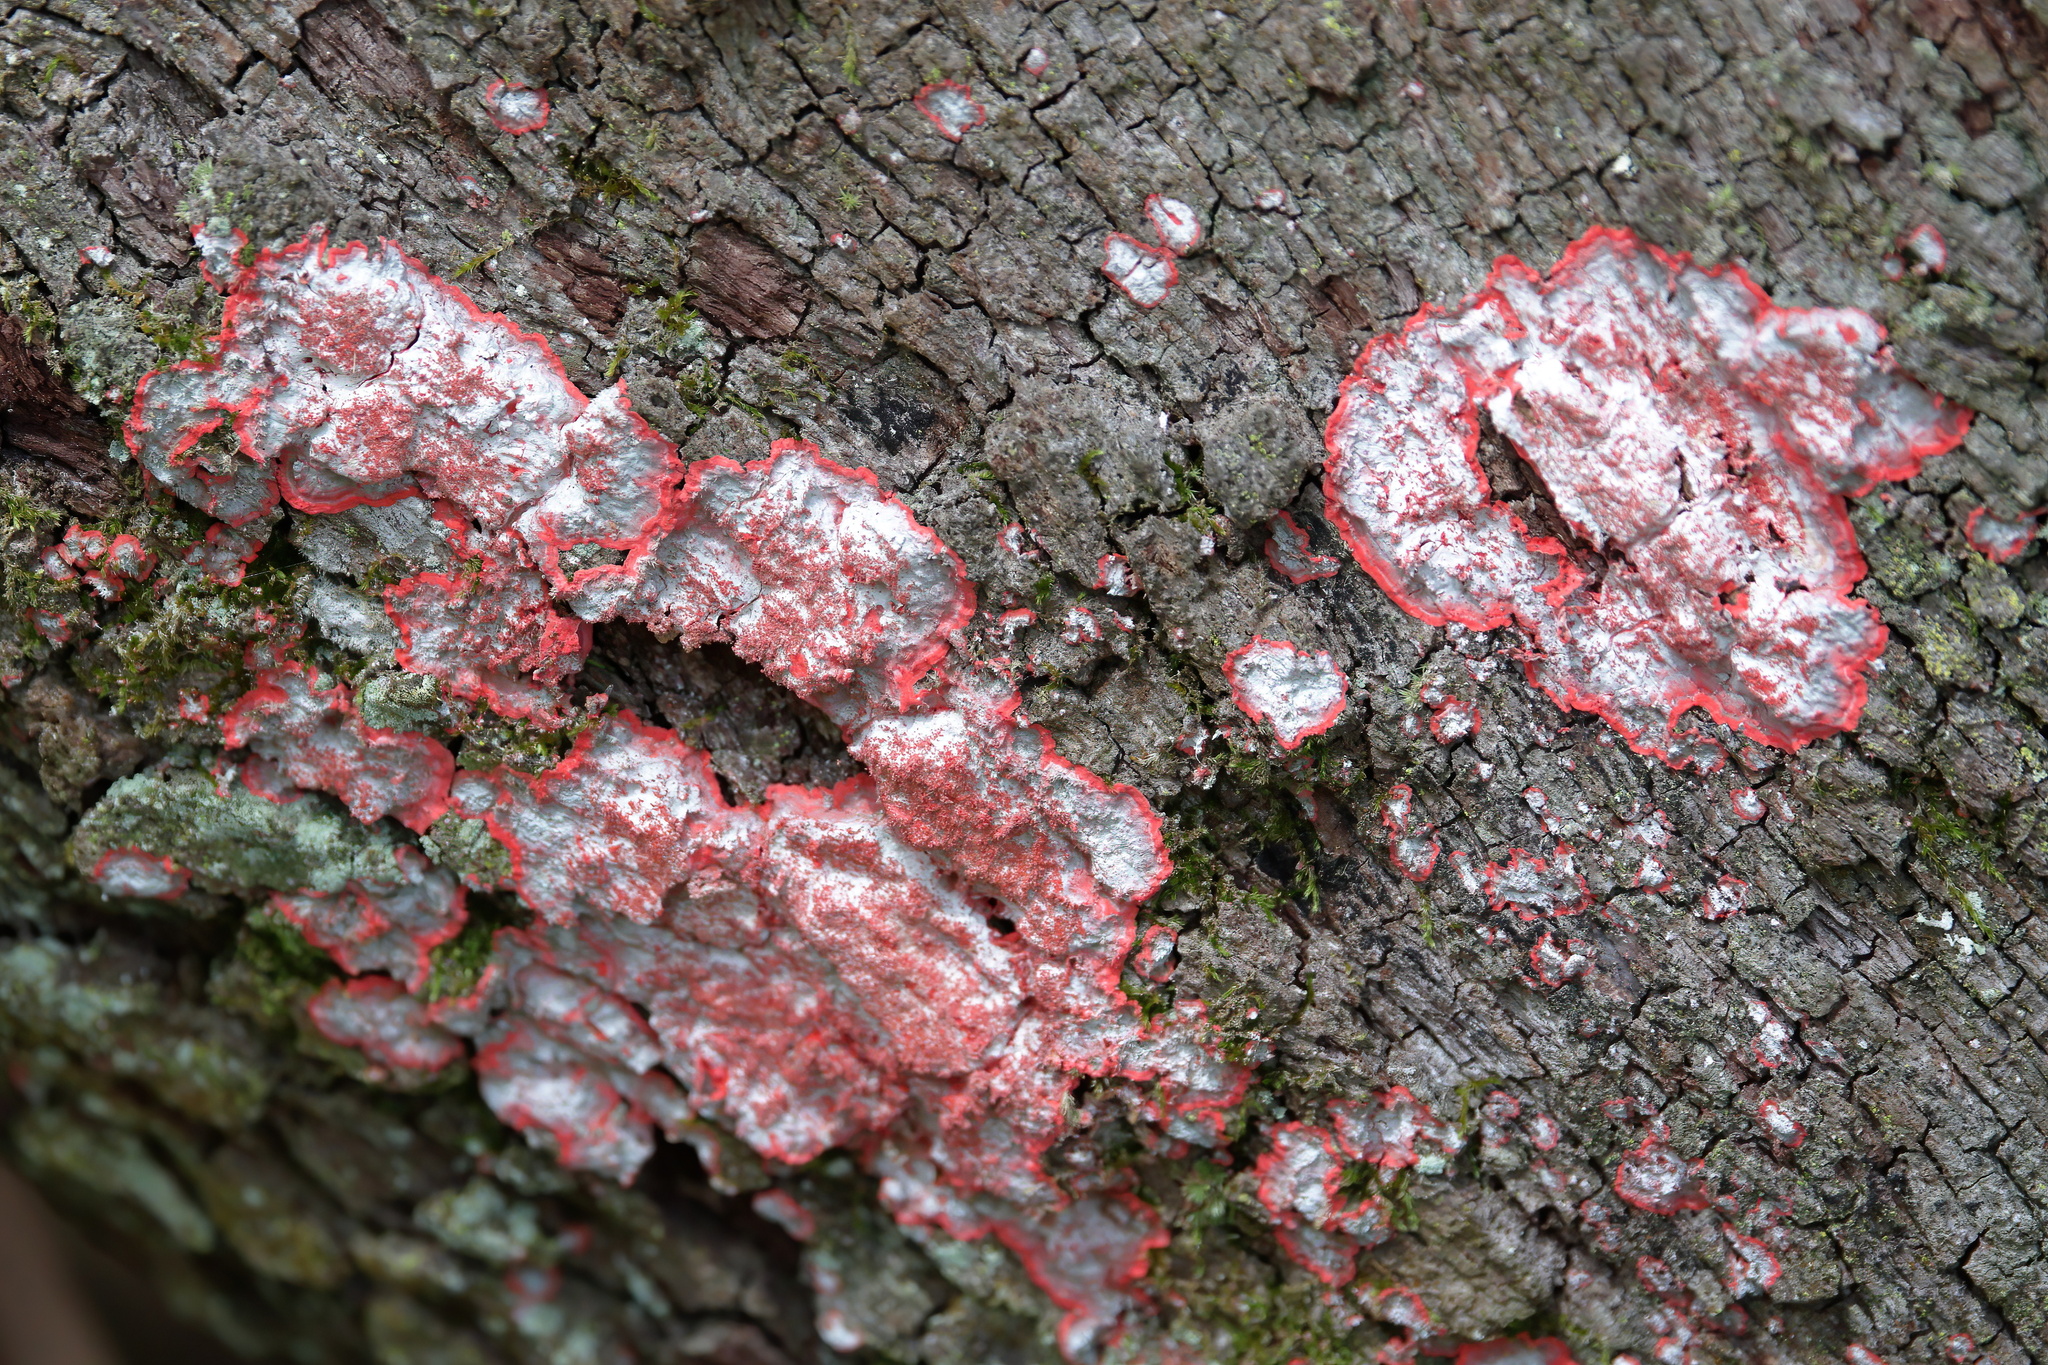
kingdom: Fungi
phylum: Ascomycota
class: Arthoniomycetes
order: Arthoniales
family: Arthoniaceae
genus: Herpothallon
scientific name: Herpothallon rubrocinctum
